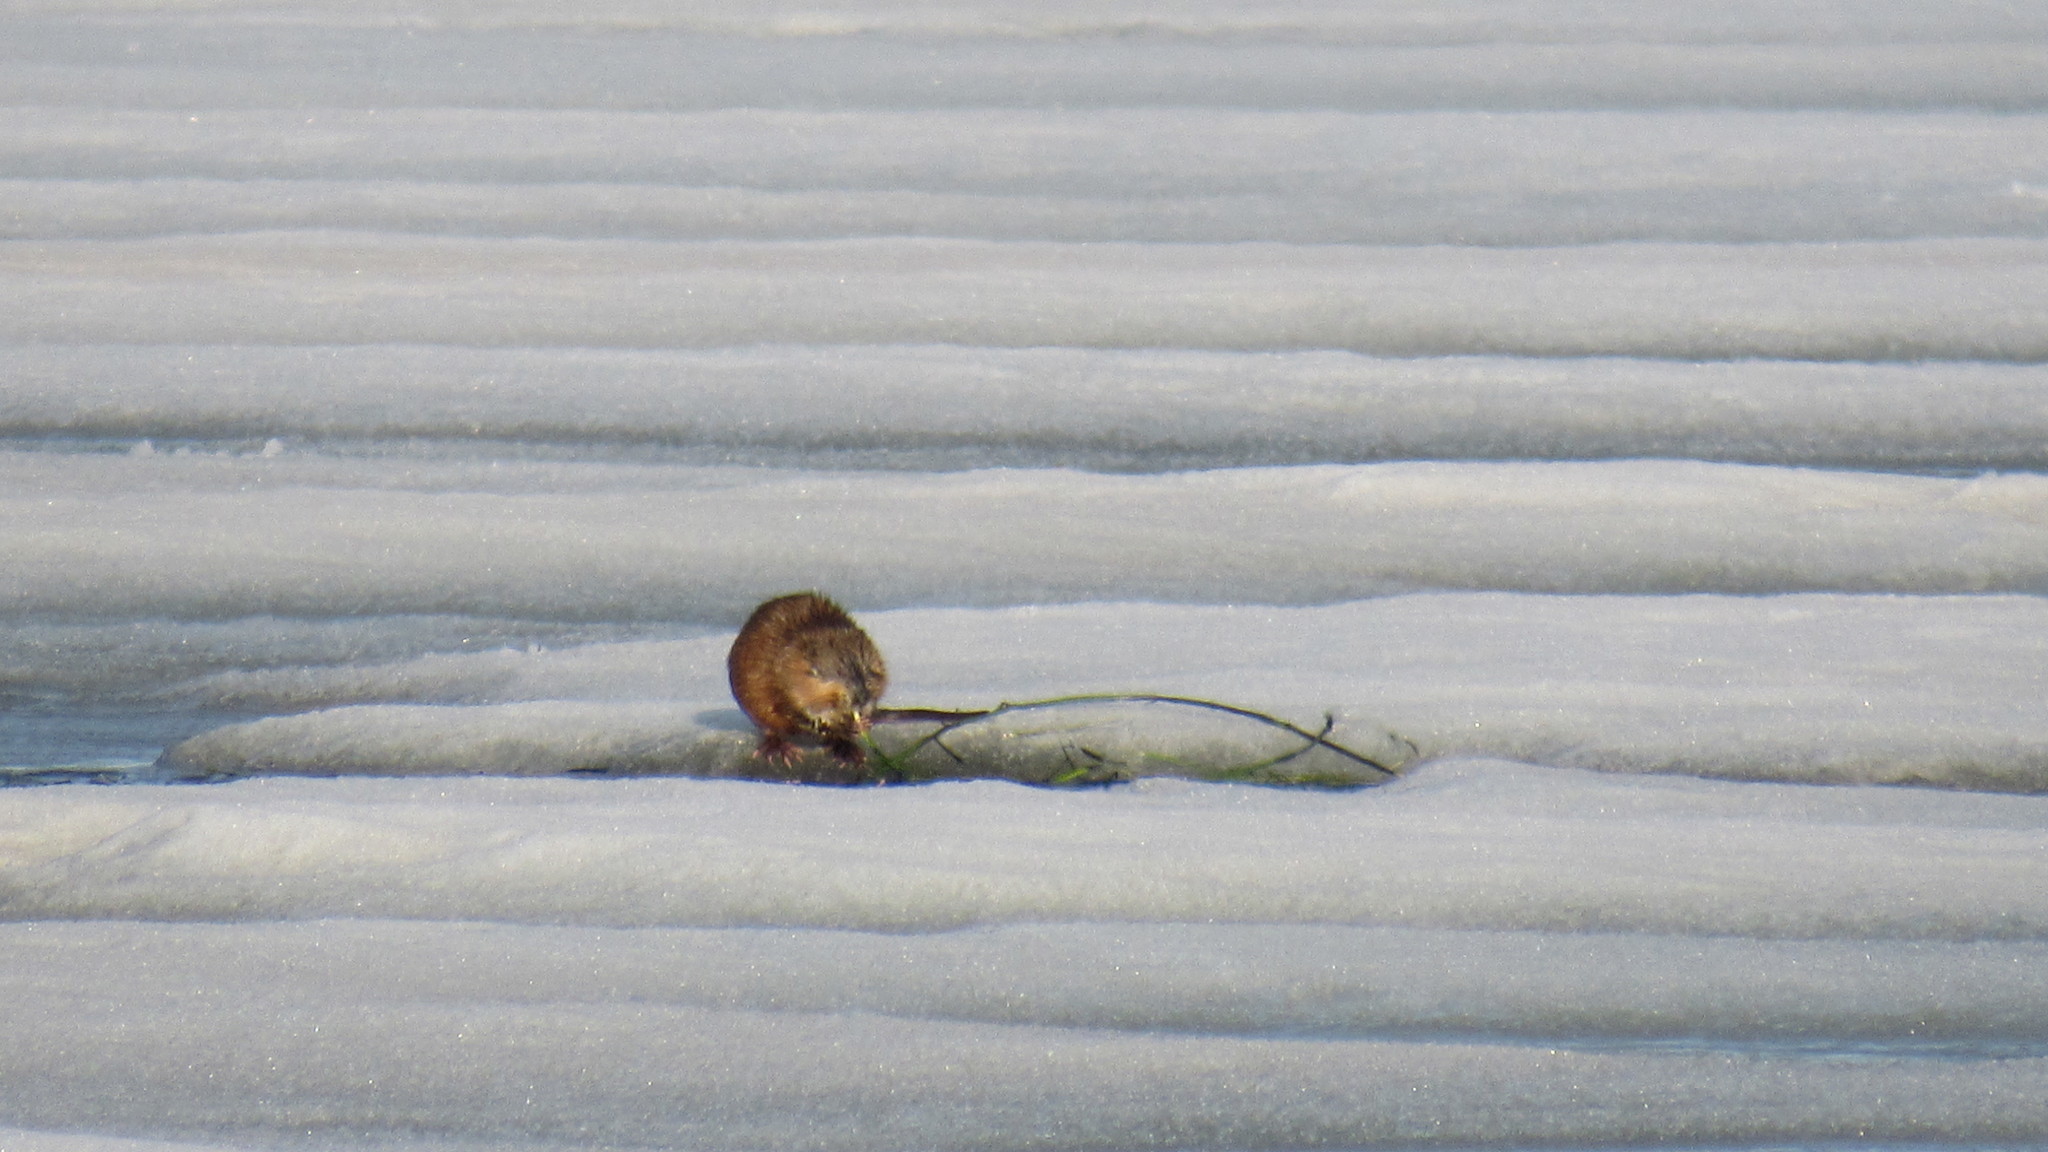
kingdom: Animalia
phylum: Chordata
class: Mammalia
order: Rodentia
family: Cricetidae
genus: Ondatra
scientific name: Ondatra zibethicus
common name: Muskrat
